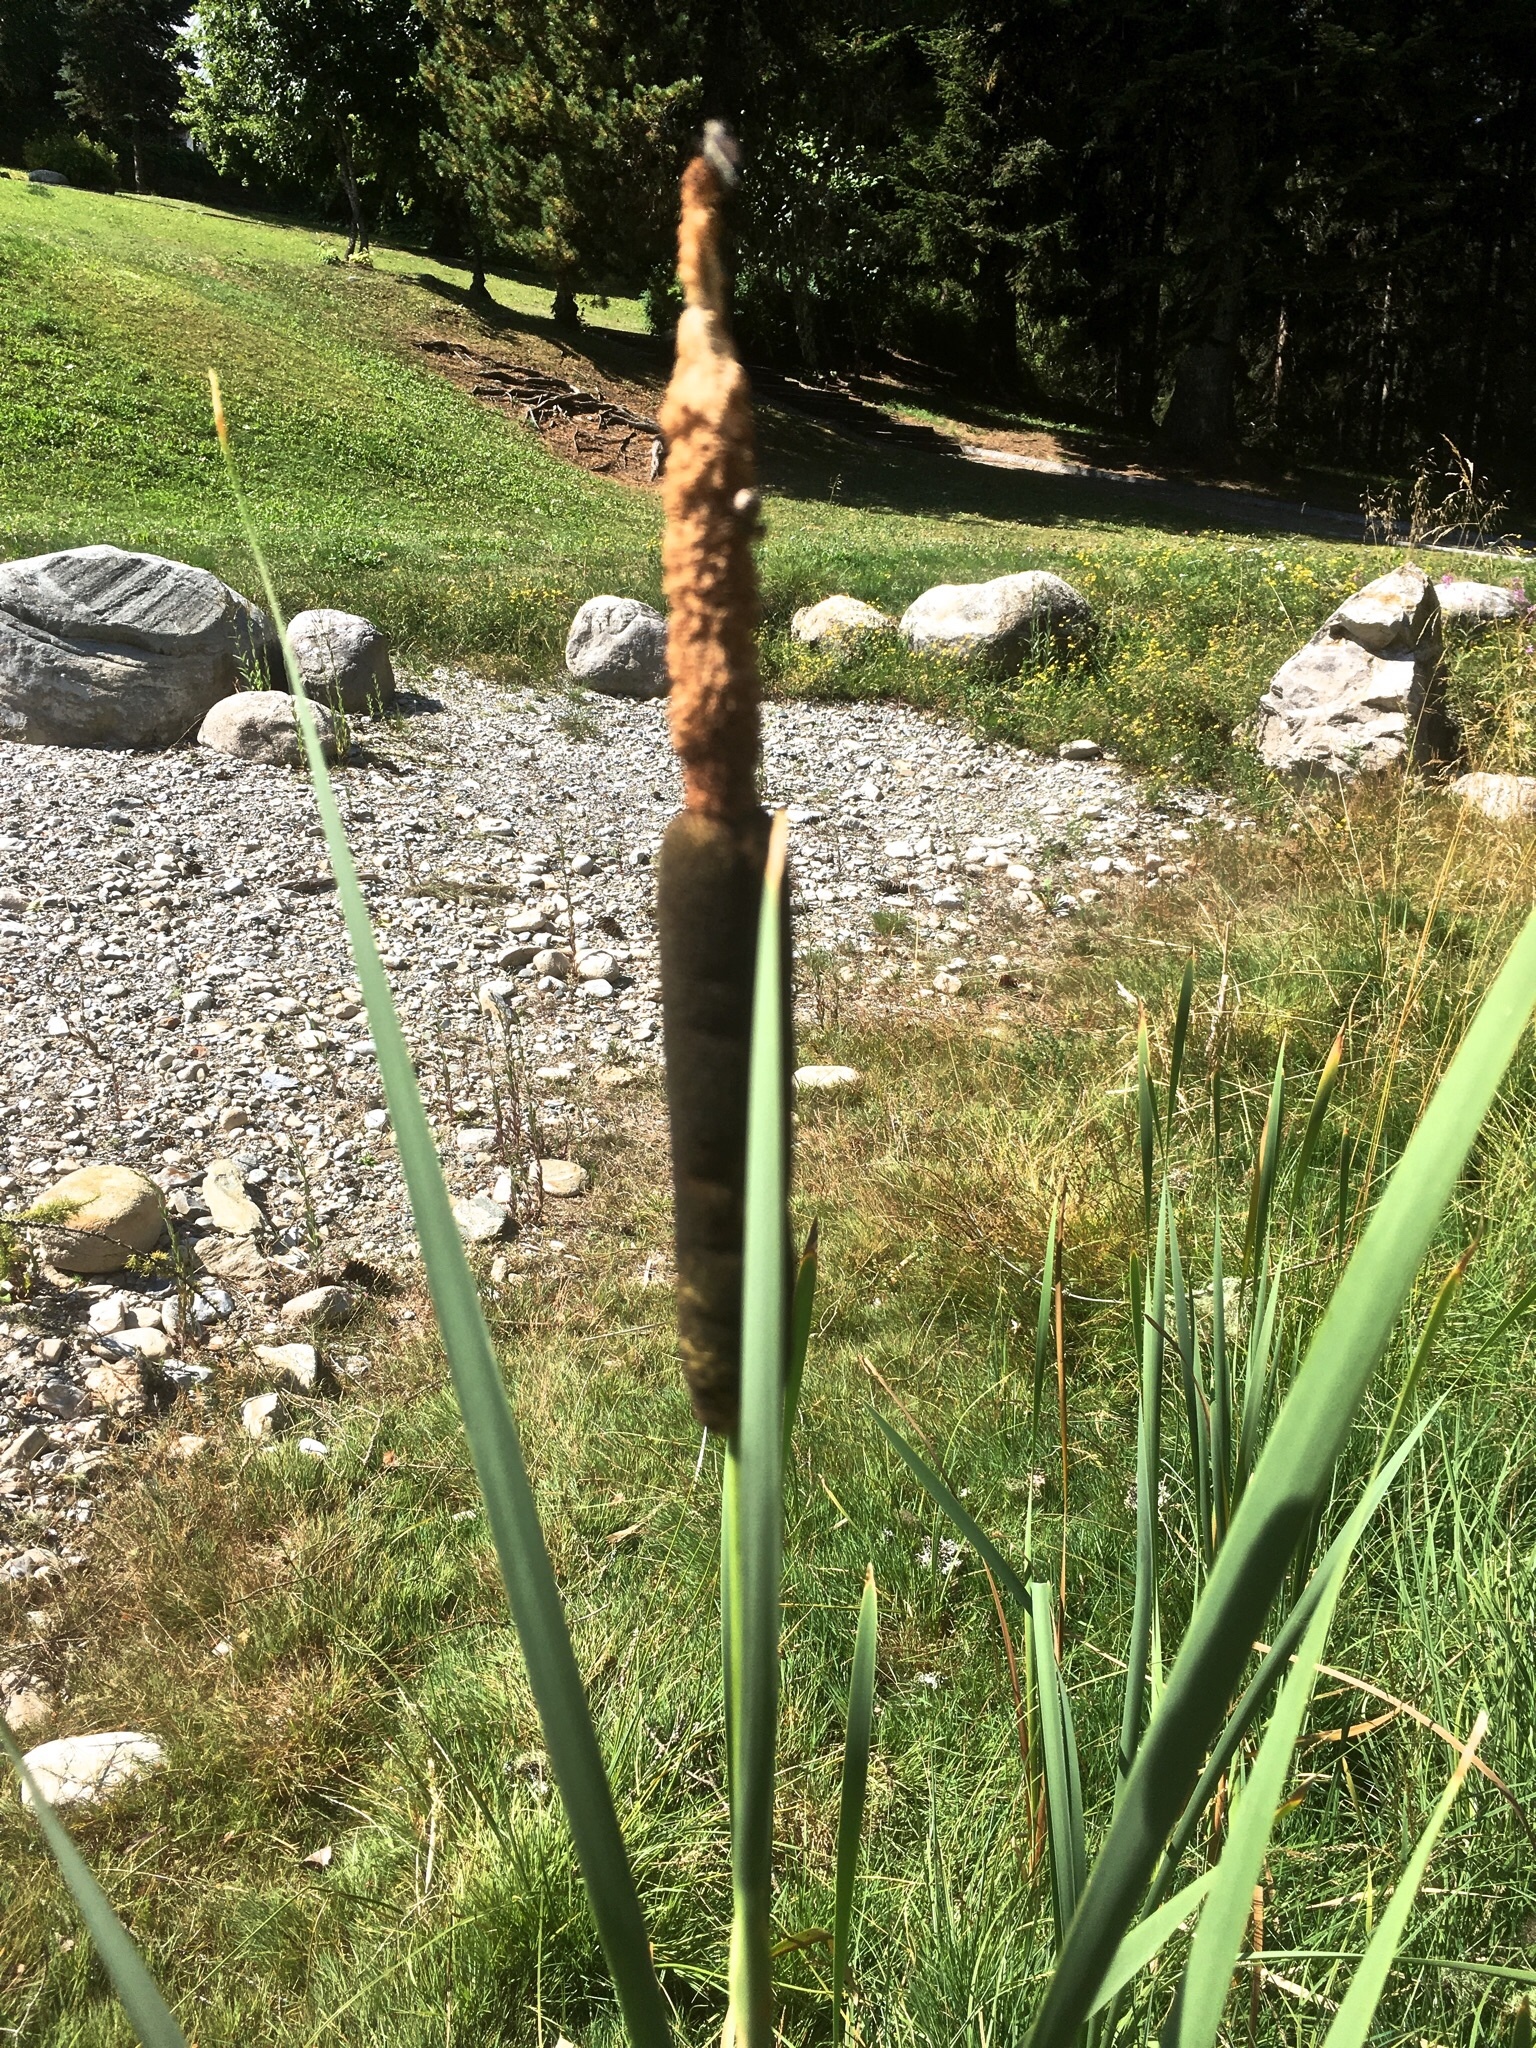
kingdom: Plantae
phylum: Tracheophyta
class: Liliopsida
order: Poales
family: Typhaceae
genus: Typha
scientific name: Typha latifolia
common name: Broadleaf cattail
